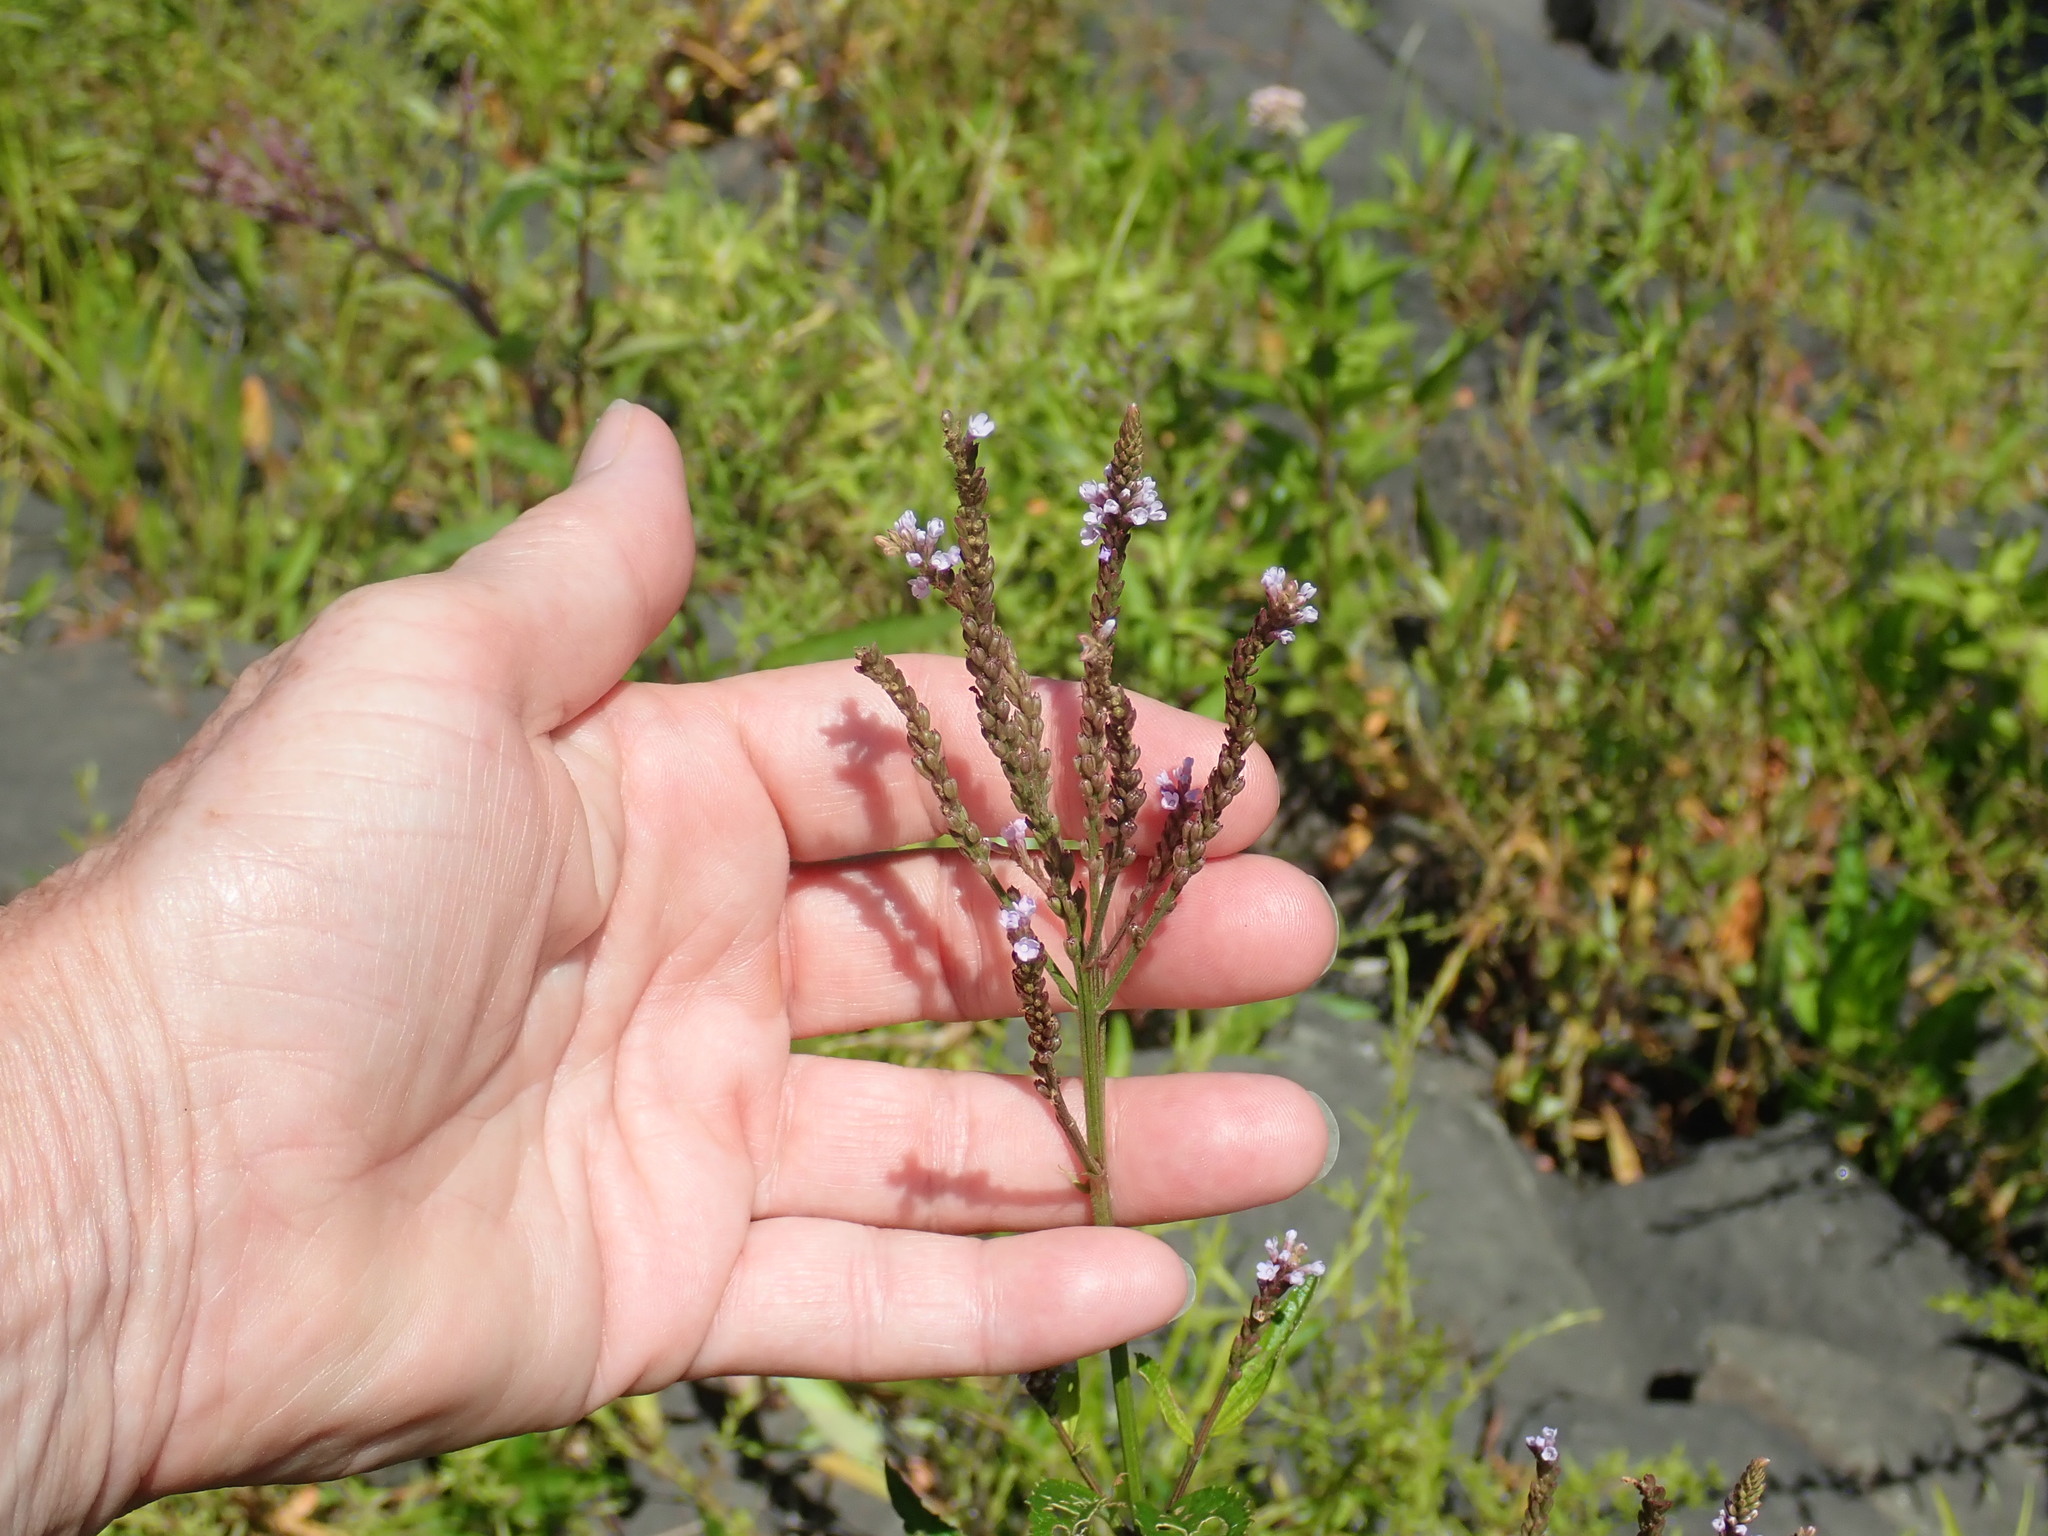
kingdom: Plantae
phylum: Tracheophyta
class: Magnoliopsida
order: Lamiales
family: Verbenaceae
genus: Verbena
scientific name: Verbena hastata
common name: American blue vervain
